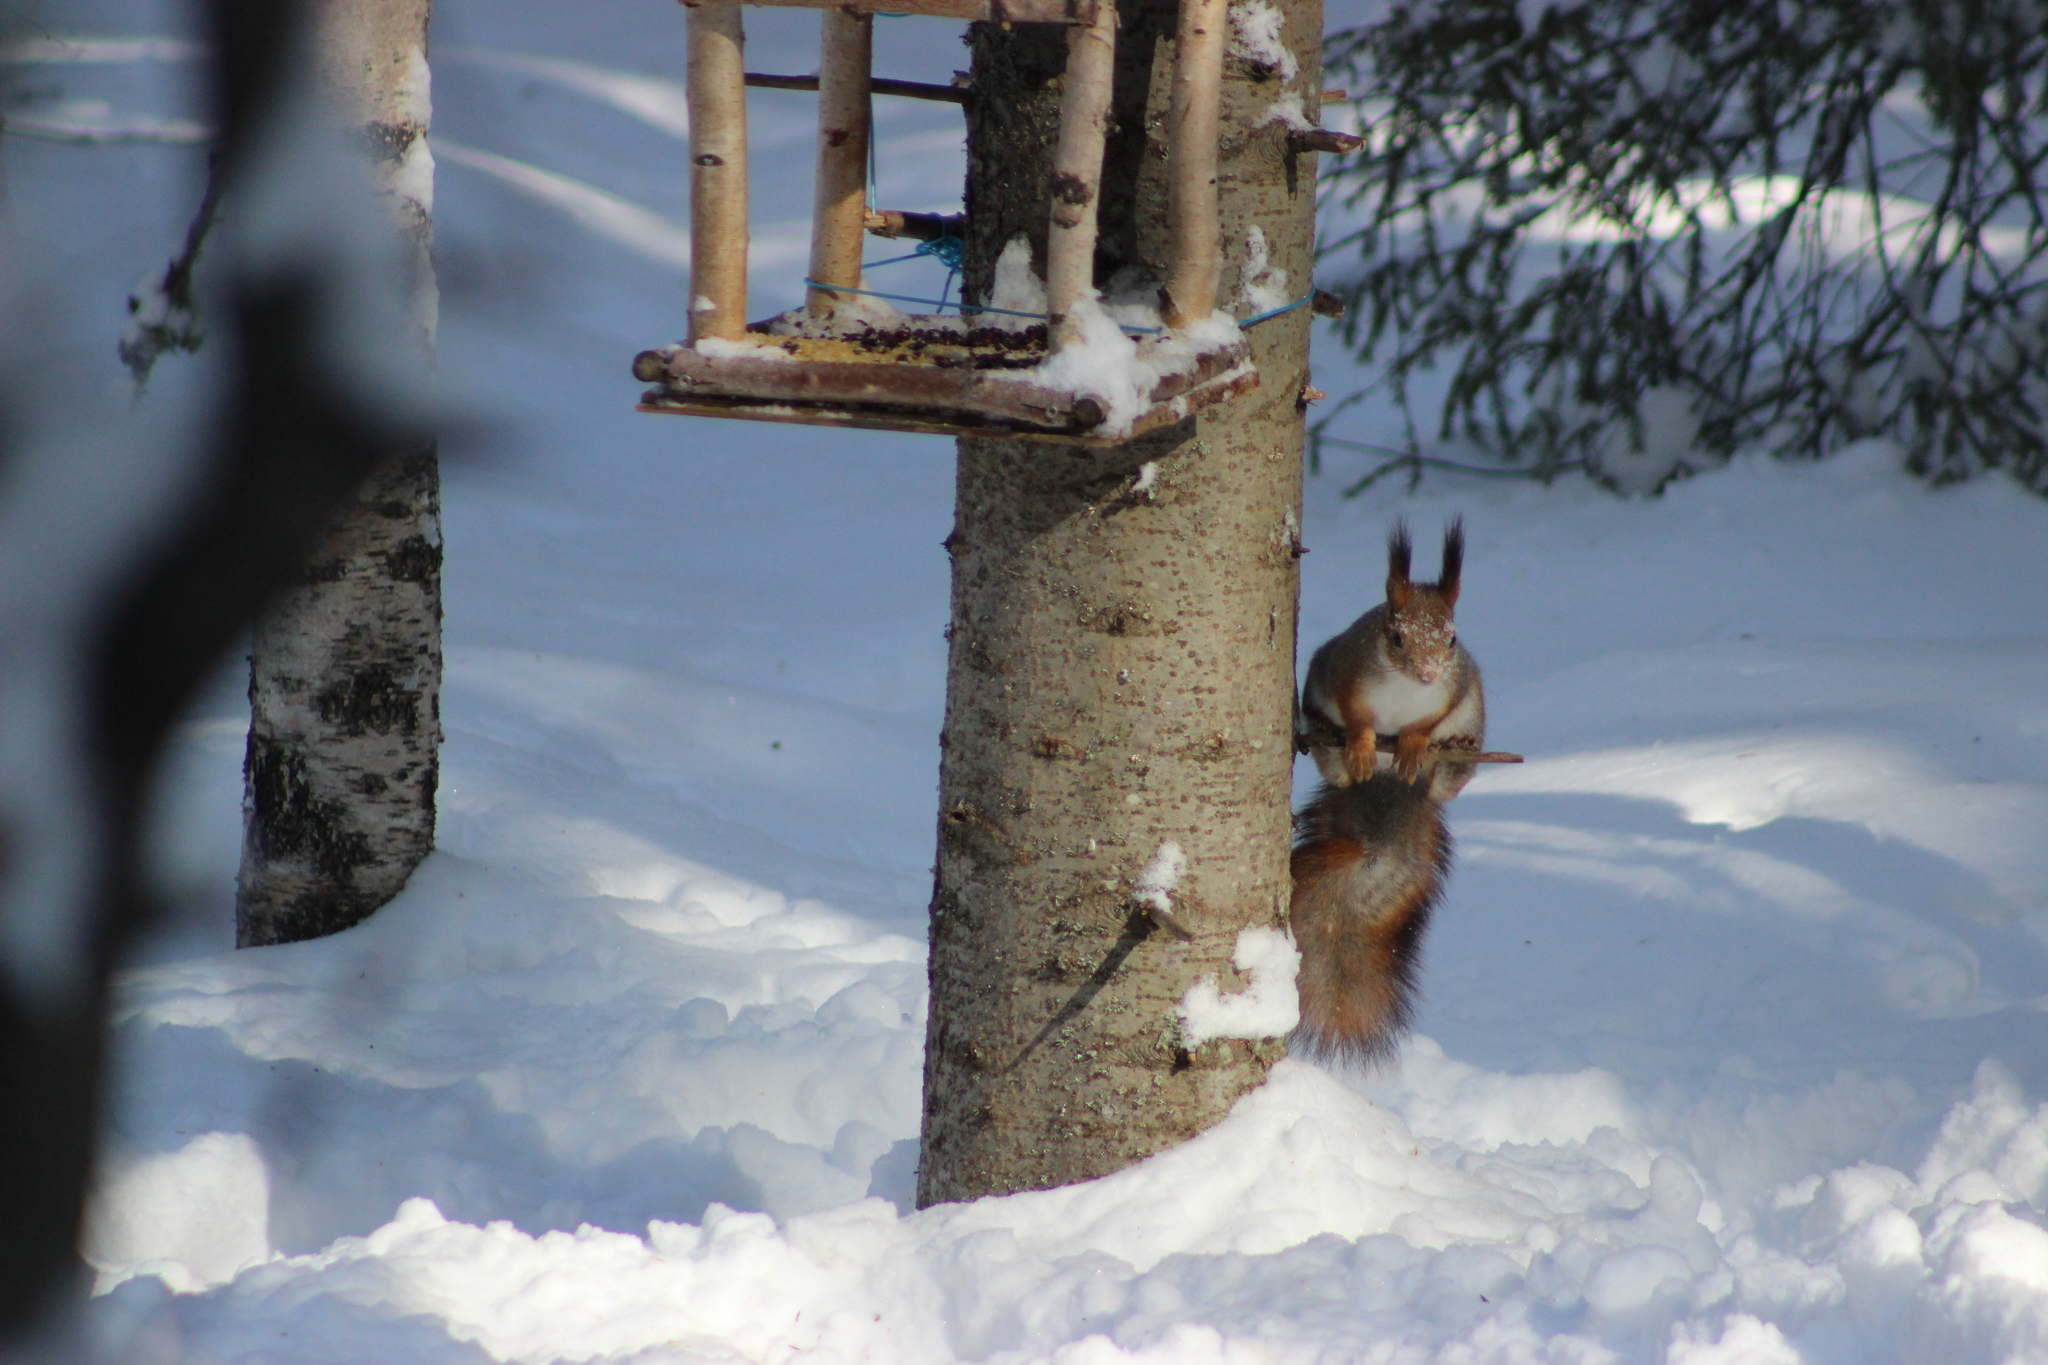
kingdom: Animalia
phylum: Chordata
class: Mammalia
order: Rodentia
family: Sciuridae
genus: Sciurus
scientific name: Sciurus vulgaris
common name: Eurasian red squirrel
